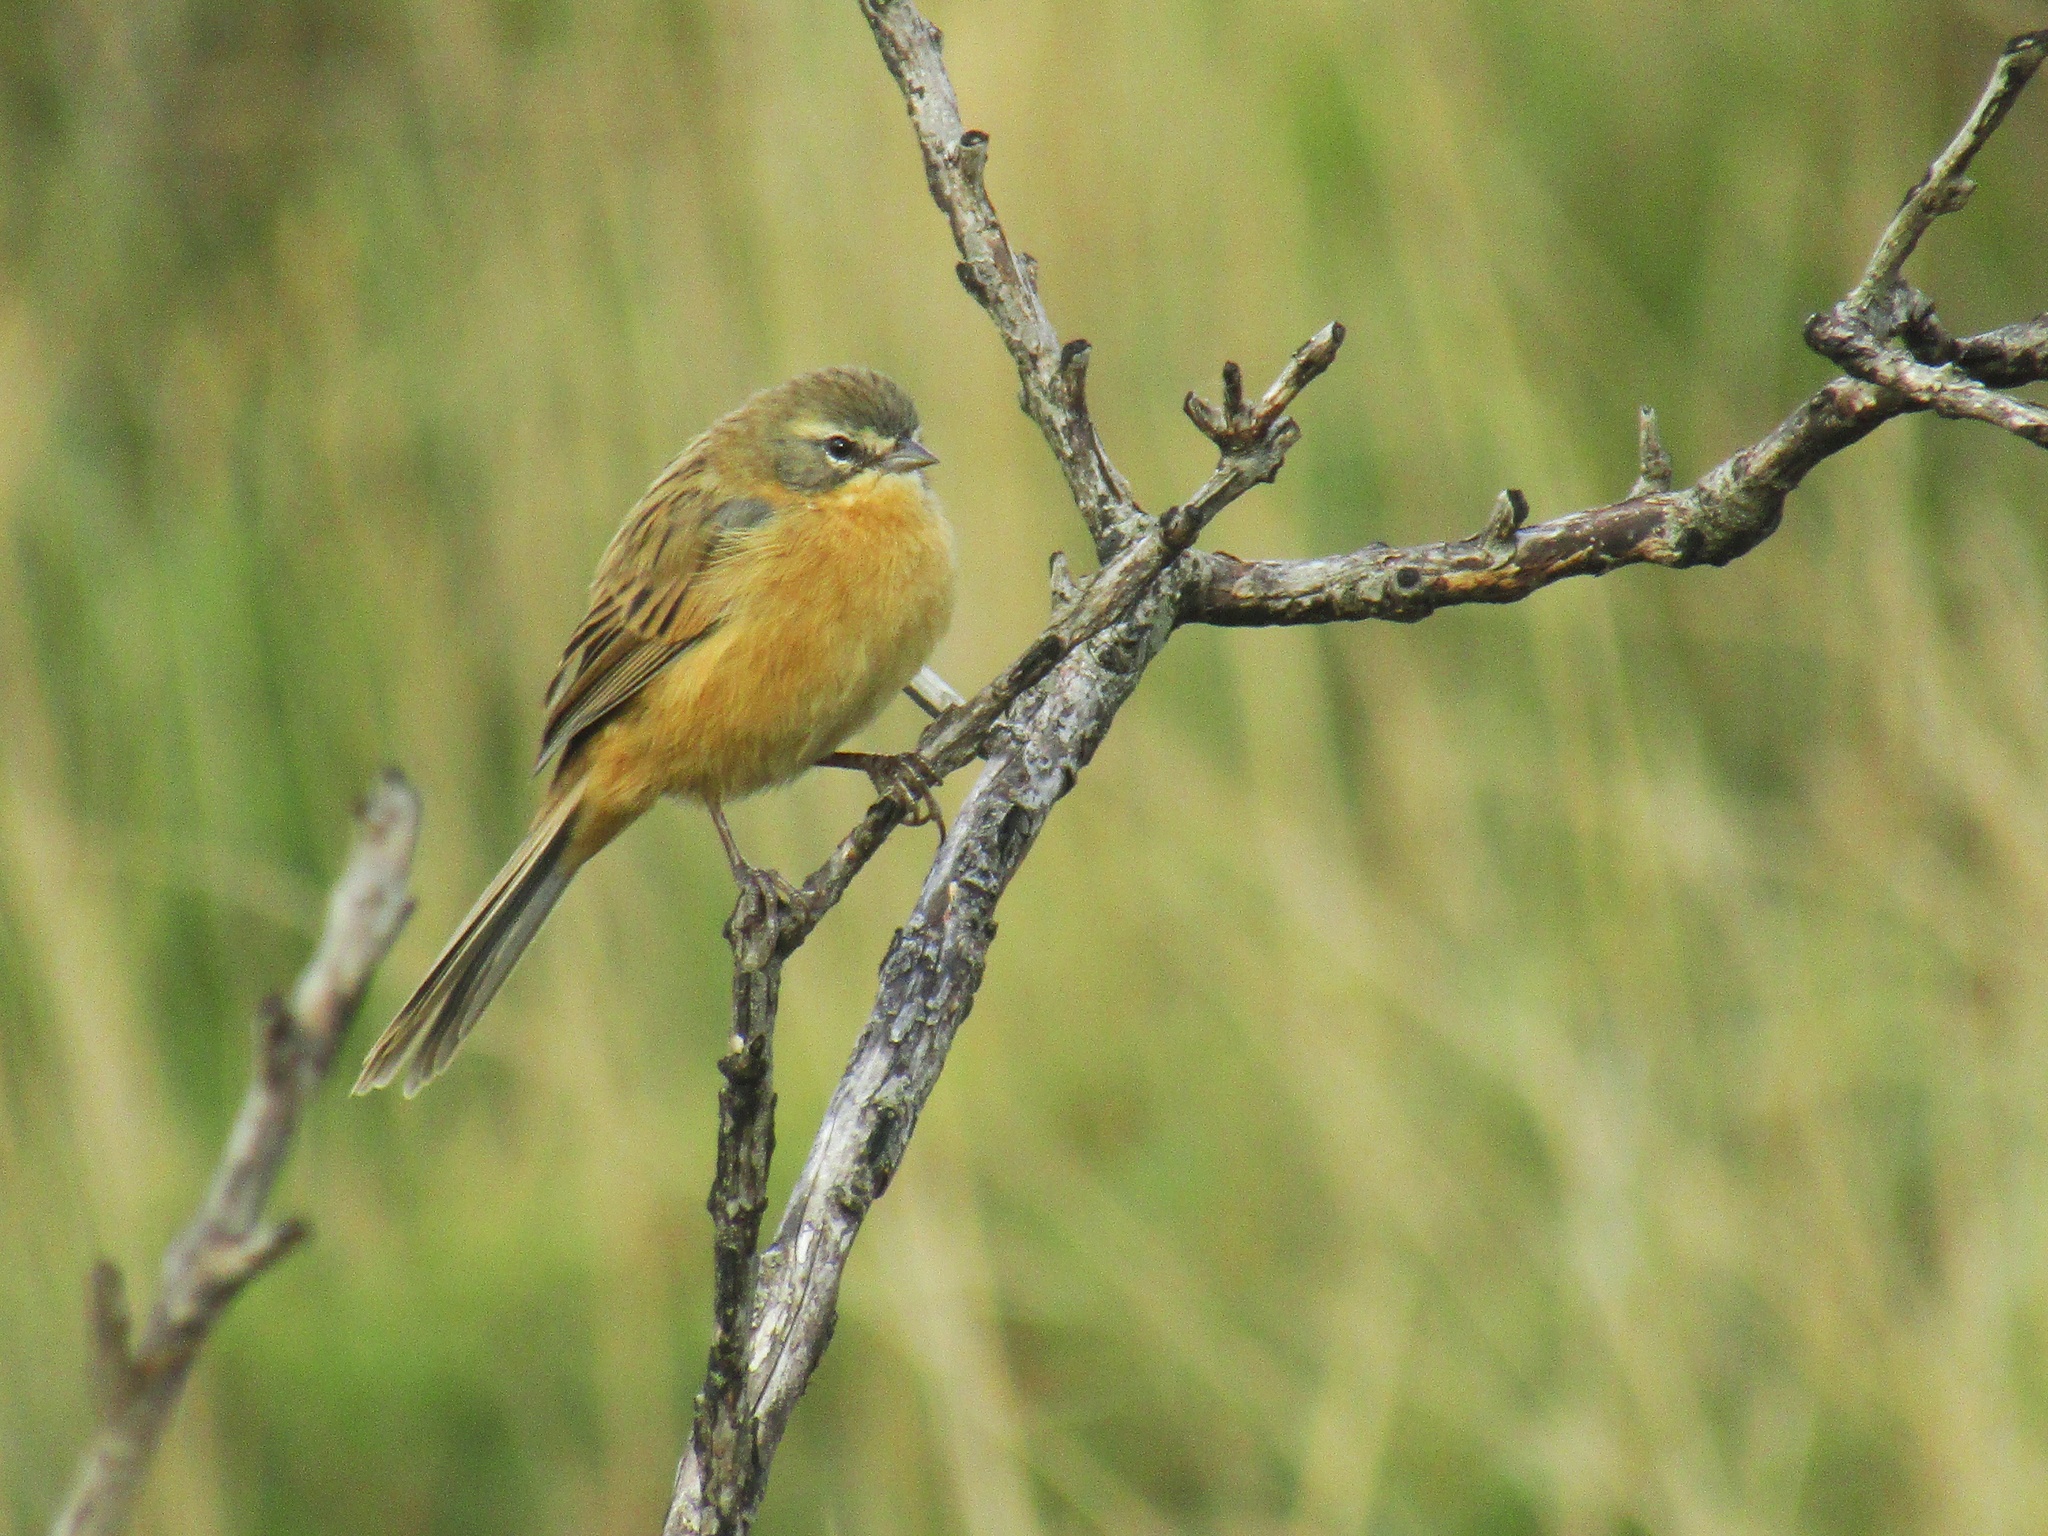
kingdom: Animalia
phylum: Chordata
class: Aves
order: Passeriformes
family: Thraupidae
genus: Donacospiza
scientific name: Donacospiza albifrons
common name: Long-tailed reed finch
